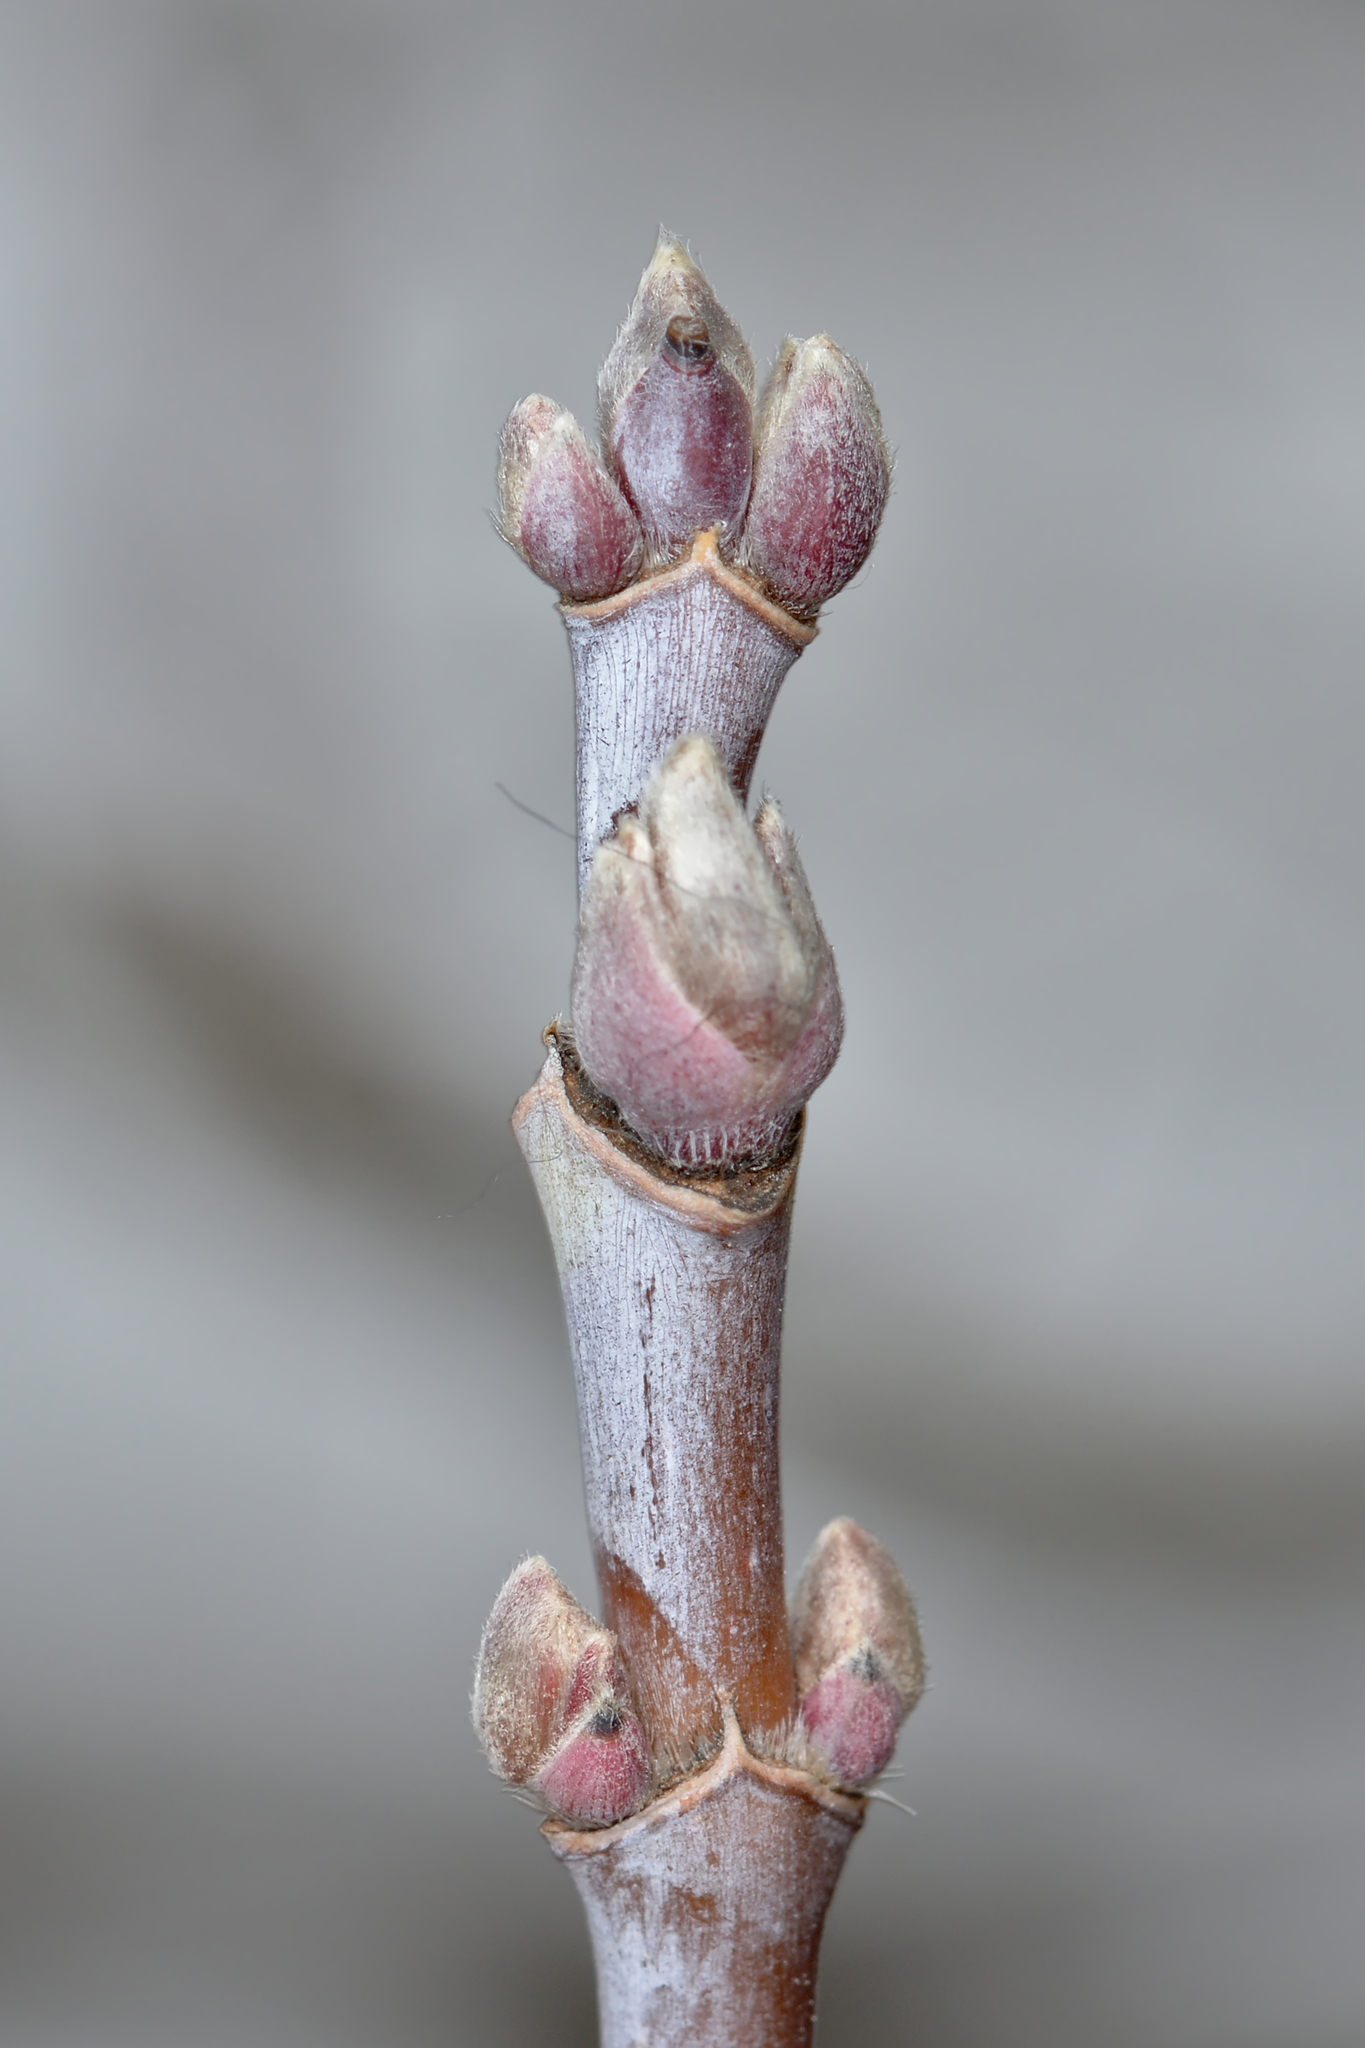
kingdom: Plantae
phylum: Tracheophyta
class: Magnoliopsida
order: Sapindales
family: Sapindaceae
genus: Acer
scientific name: Acer negundo
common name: Ashleaf maple
